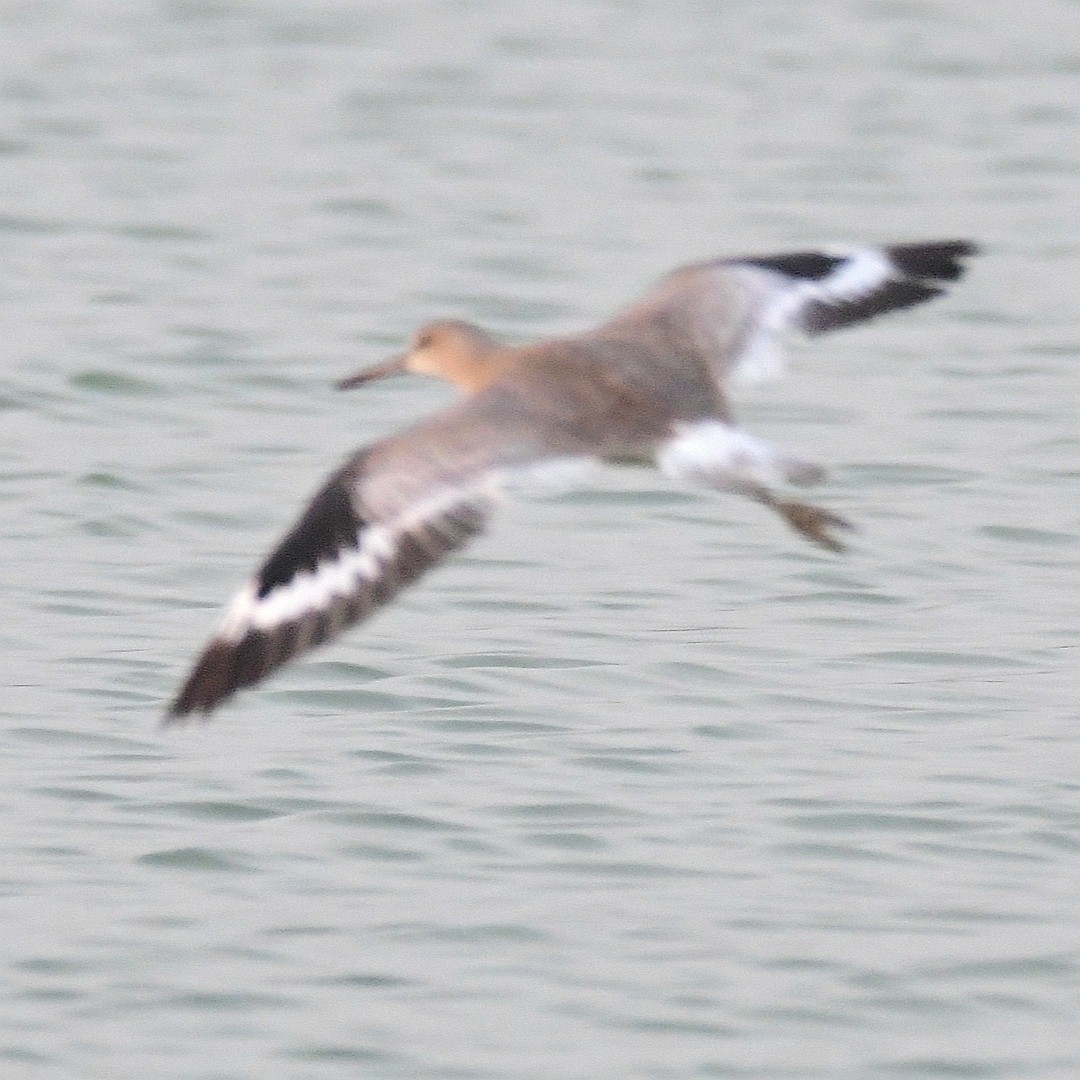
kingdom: Animalia
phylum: Chordata
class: Aves
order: Charadriiformes
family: Scolopacidae
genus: Tringa
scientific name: Tringa semipalmata
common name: Willet
